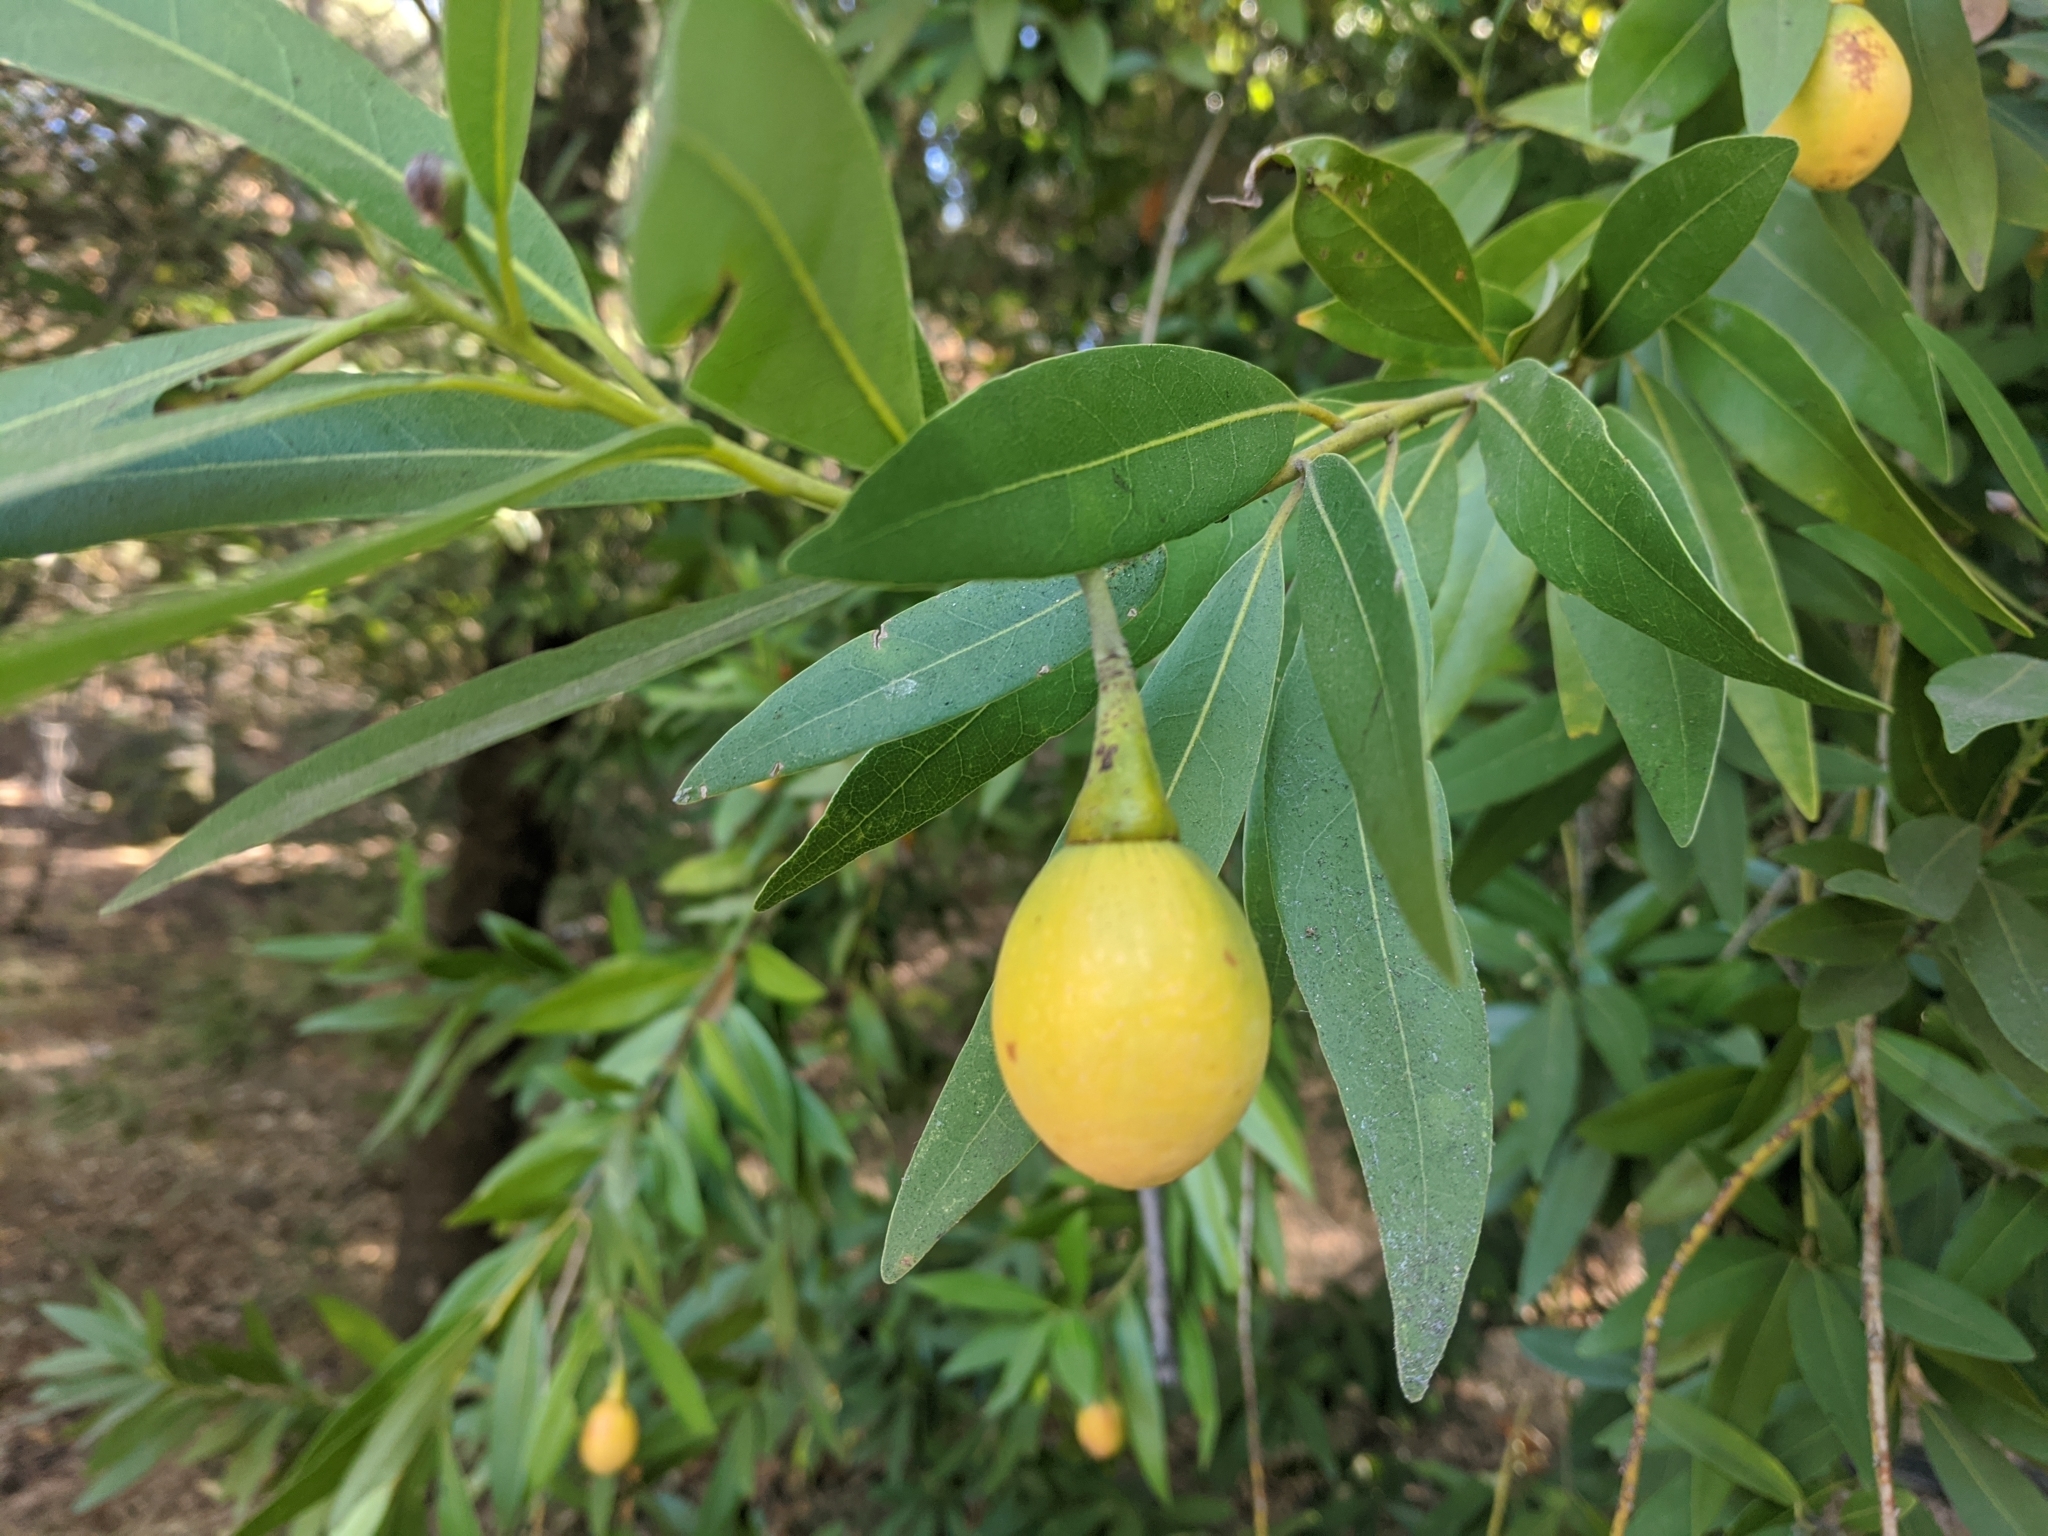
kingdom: Plantae
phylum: Tracheophyta
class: Magnoliopsida
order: Laurales
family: Lauraceae
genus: Umbellularia
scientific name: Umbellularia californica
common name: California bay
